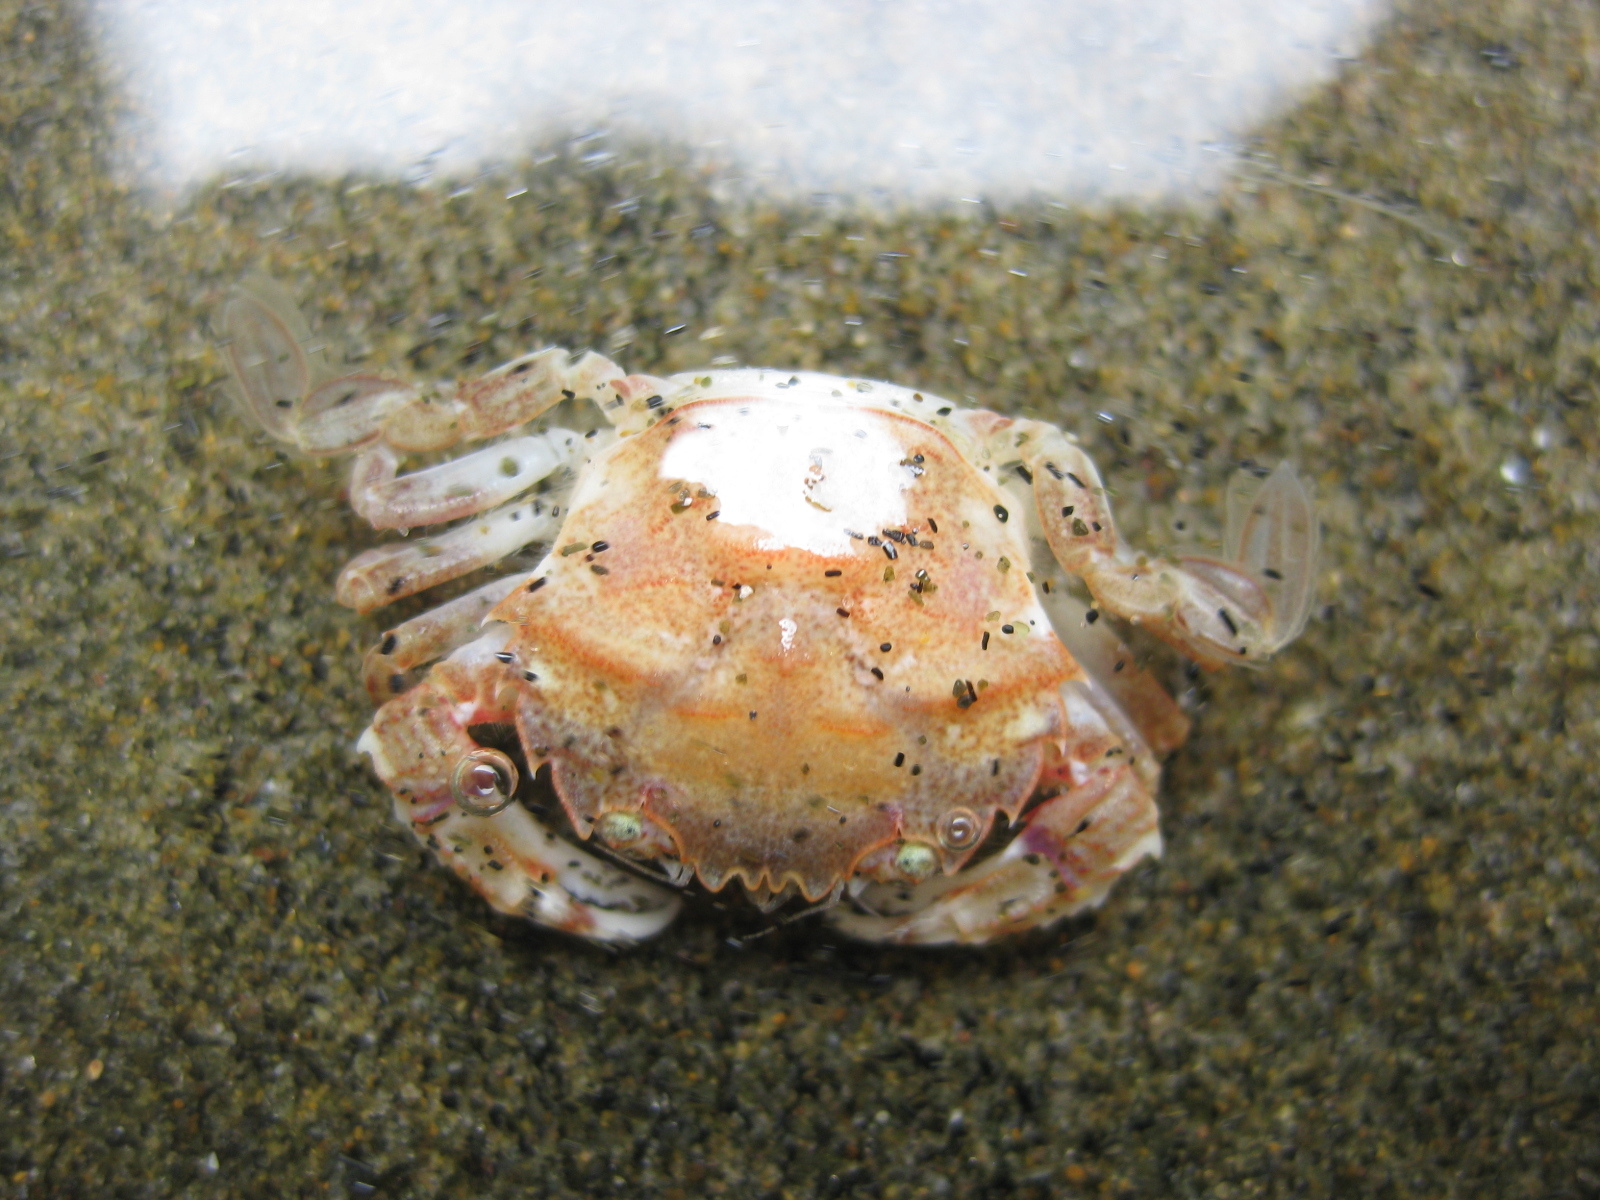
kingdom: Animalia
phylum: Arthropoda
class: Malacostraca
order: Decapoda
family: Geryonidae
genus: Nectocarcinus
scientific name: Nectocarcinus antarcticus
